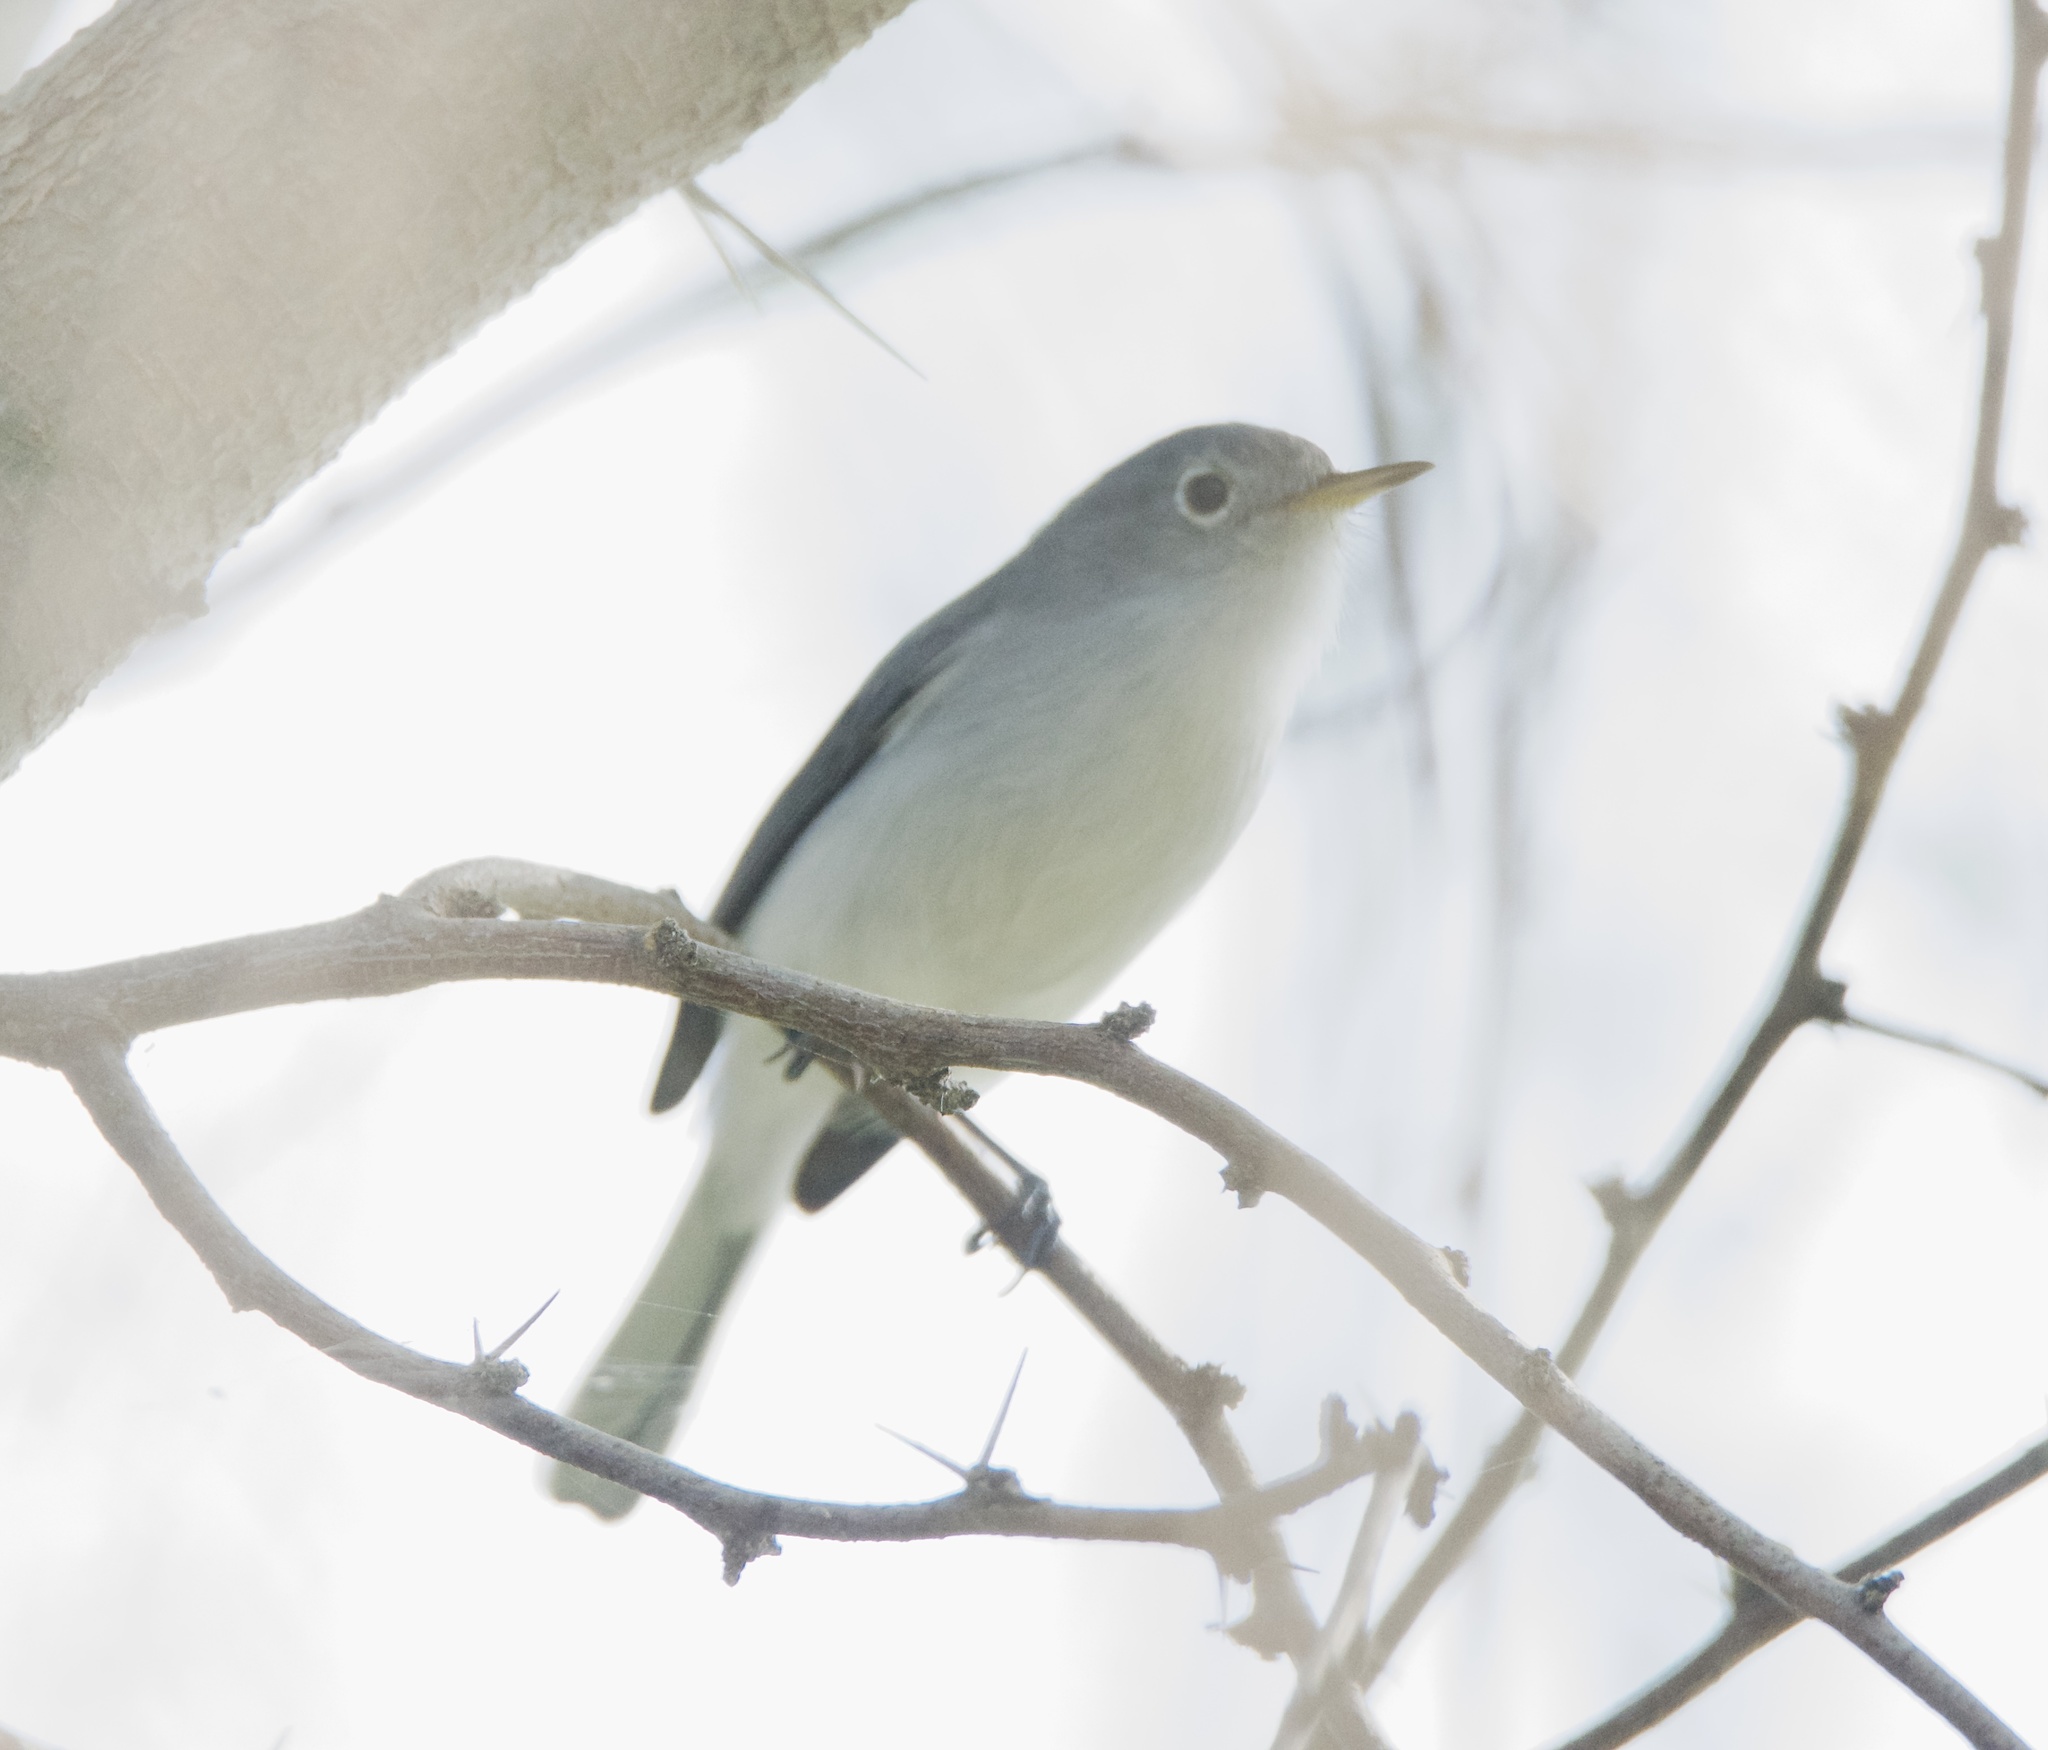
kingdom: Animalia
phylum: Chordata
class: Aves
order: Passeriformes
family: Polioptilidae
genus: Polioptila
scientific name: Polioptila caerulea
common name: Blue-gray gnatcatcher
